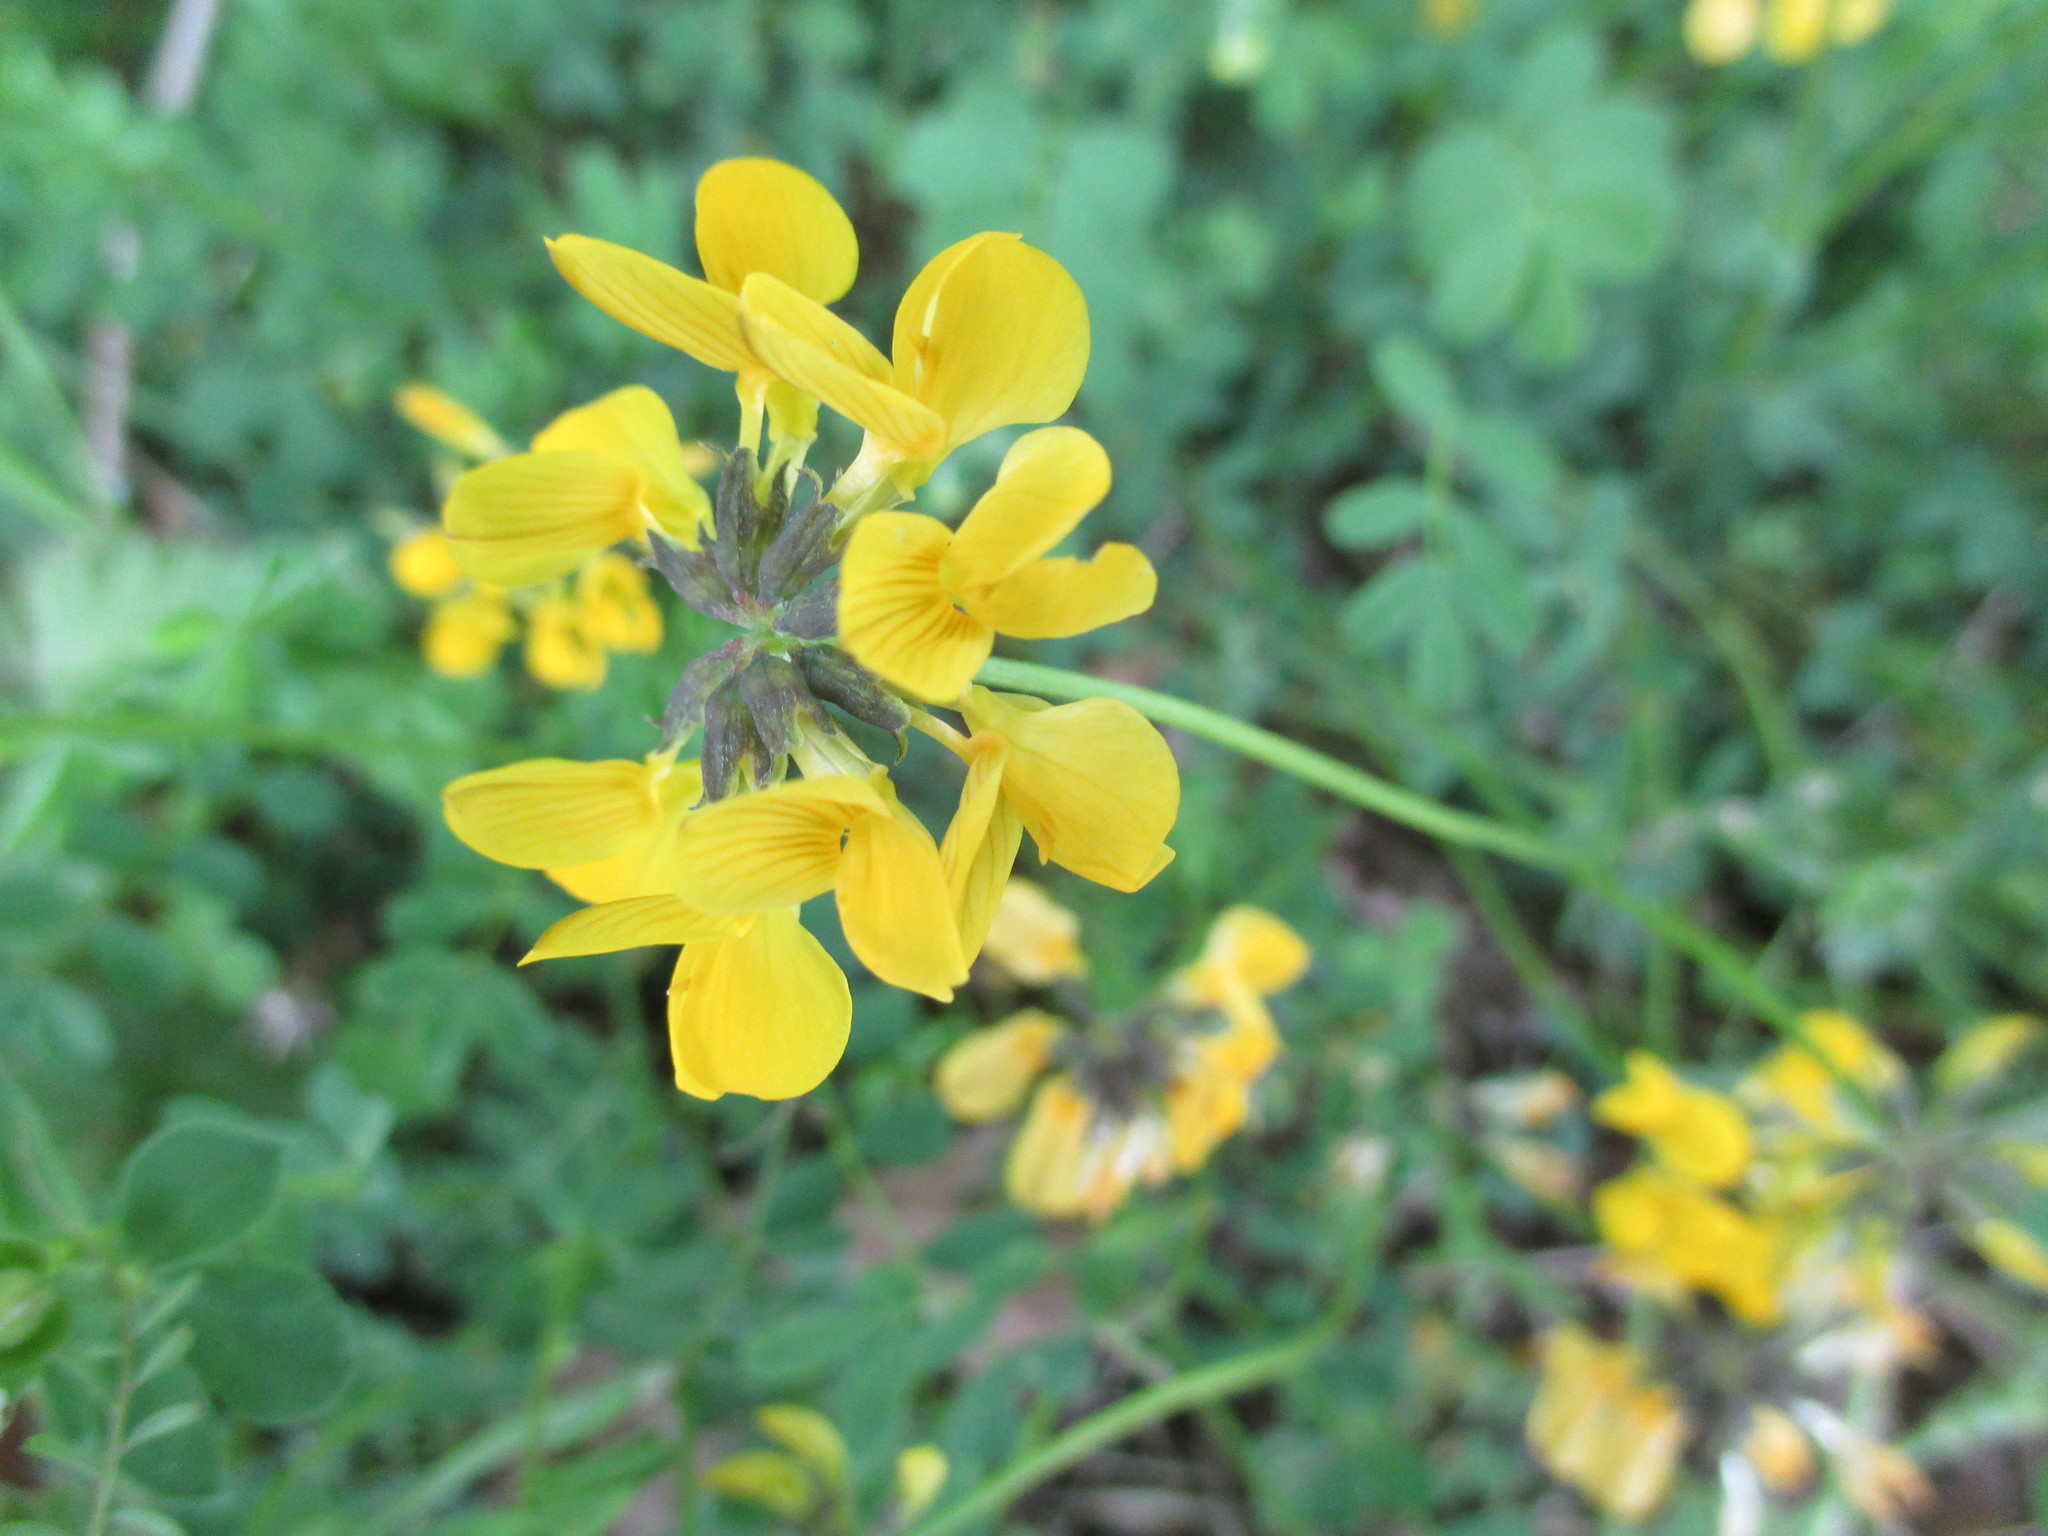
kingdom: Plantae
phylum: Tracheophyta
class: Magnoliopsida
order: Fabales
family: Fabaceae
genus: Hippocrepis
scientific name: Hippocrepis comosa
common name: Horseshoe vetch
